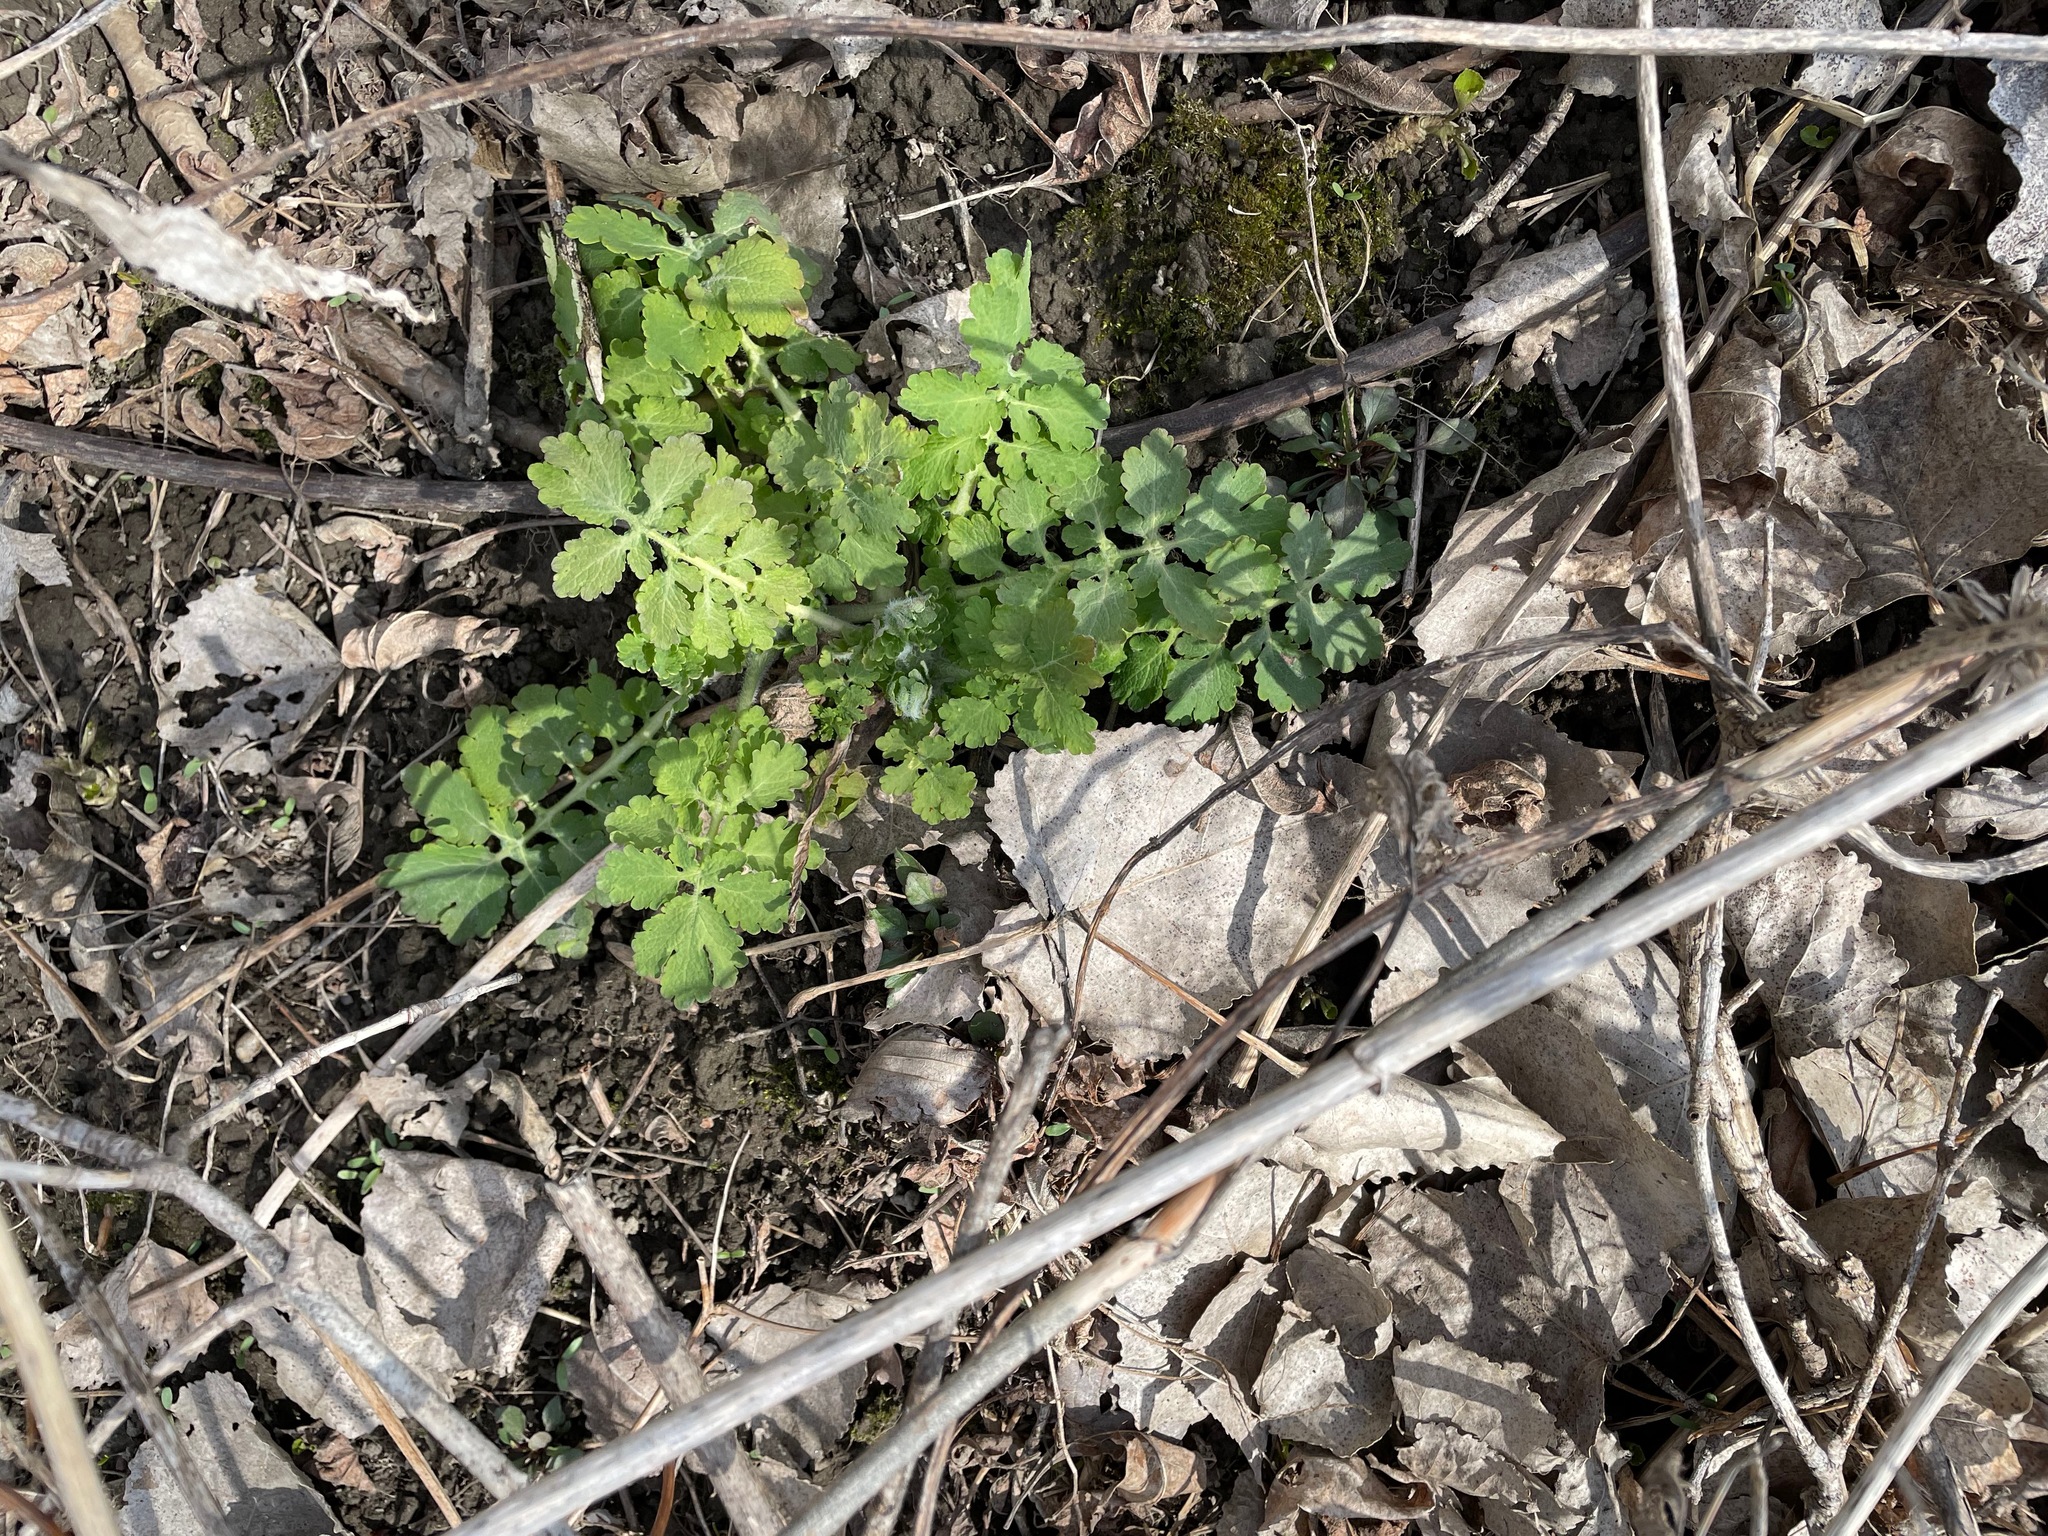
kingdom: Plantae
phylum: Tracheophyta
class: Magnoliopsida
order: Ranunculales
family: Papaveraceae
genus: Chelidonium
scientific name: Chelidonium majus
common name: Greater celandine
